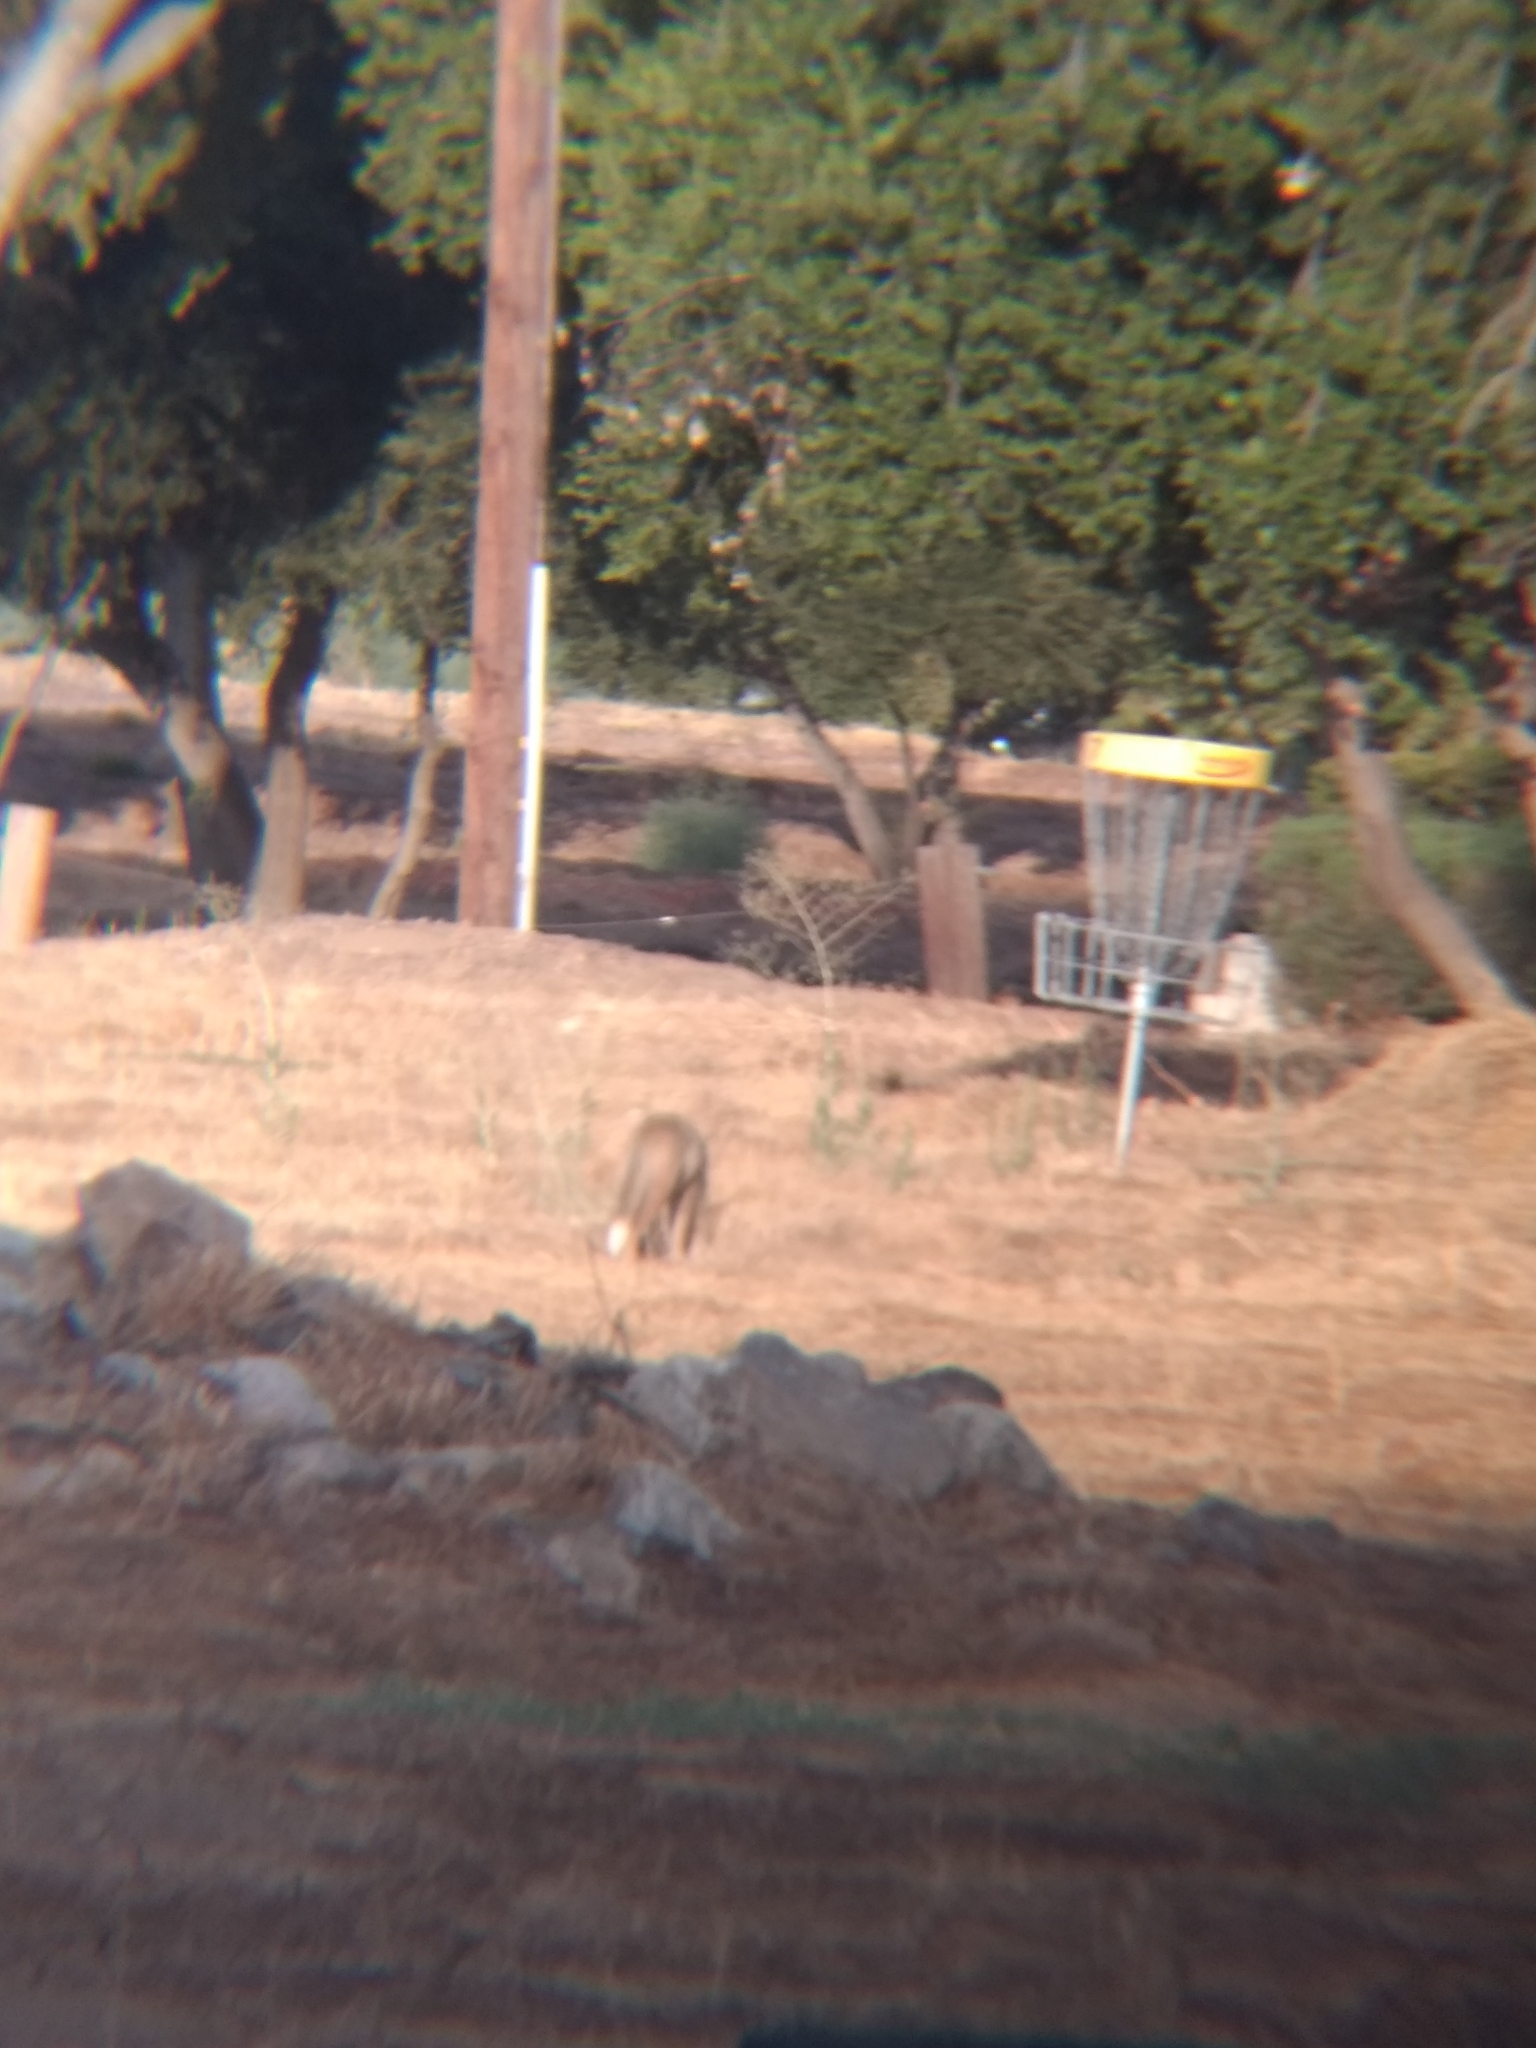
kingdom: Animalia
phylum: Chordata
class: Mammalia
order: Carnivora
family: Canidae
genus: Canis
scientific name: Canis latrans
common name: Coyote
